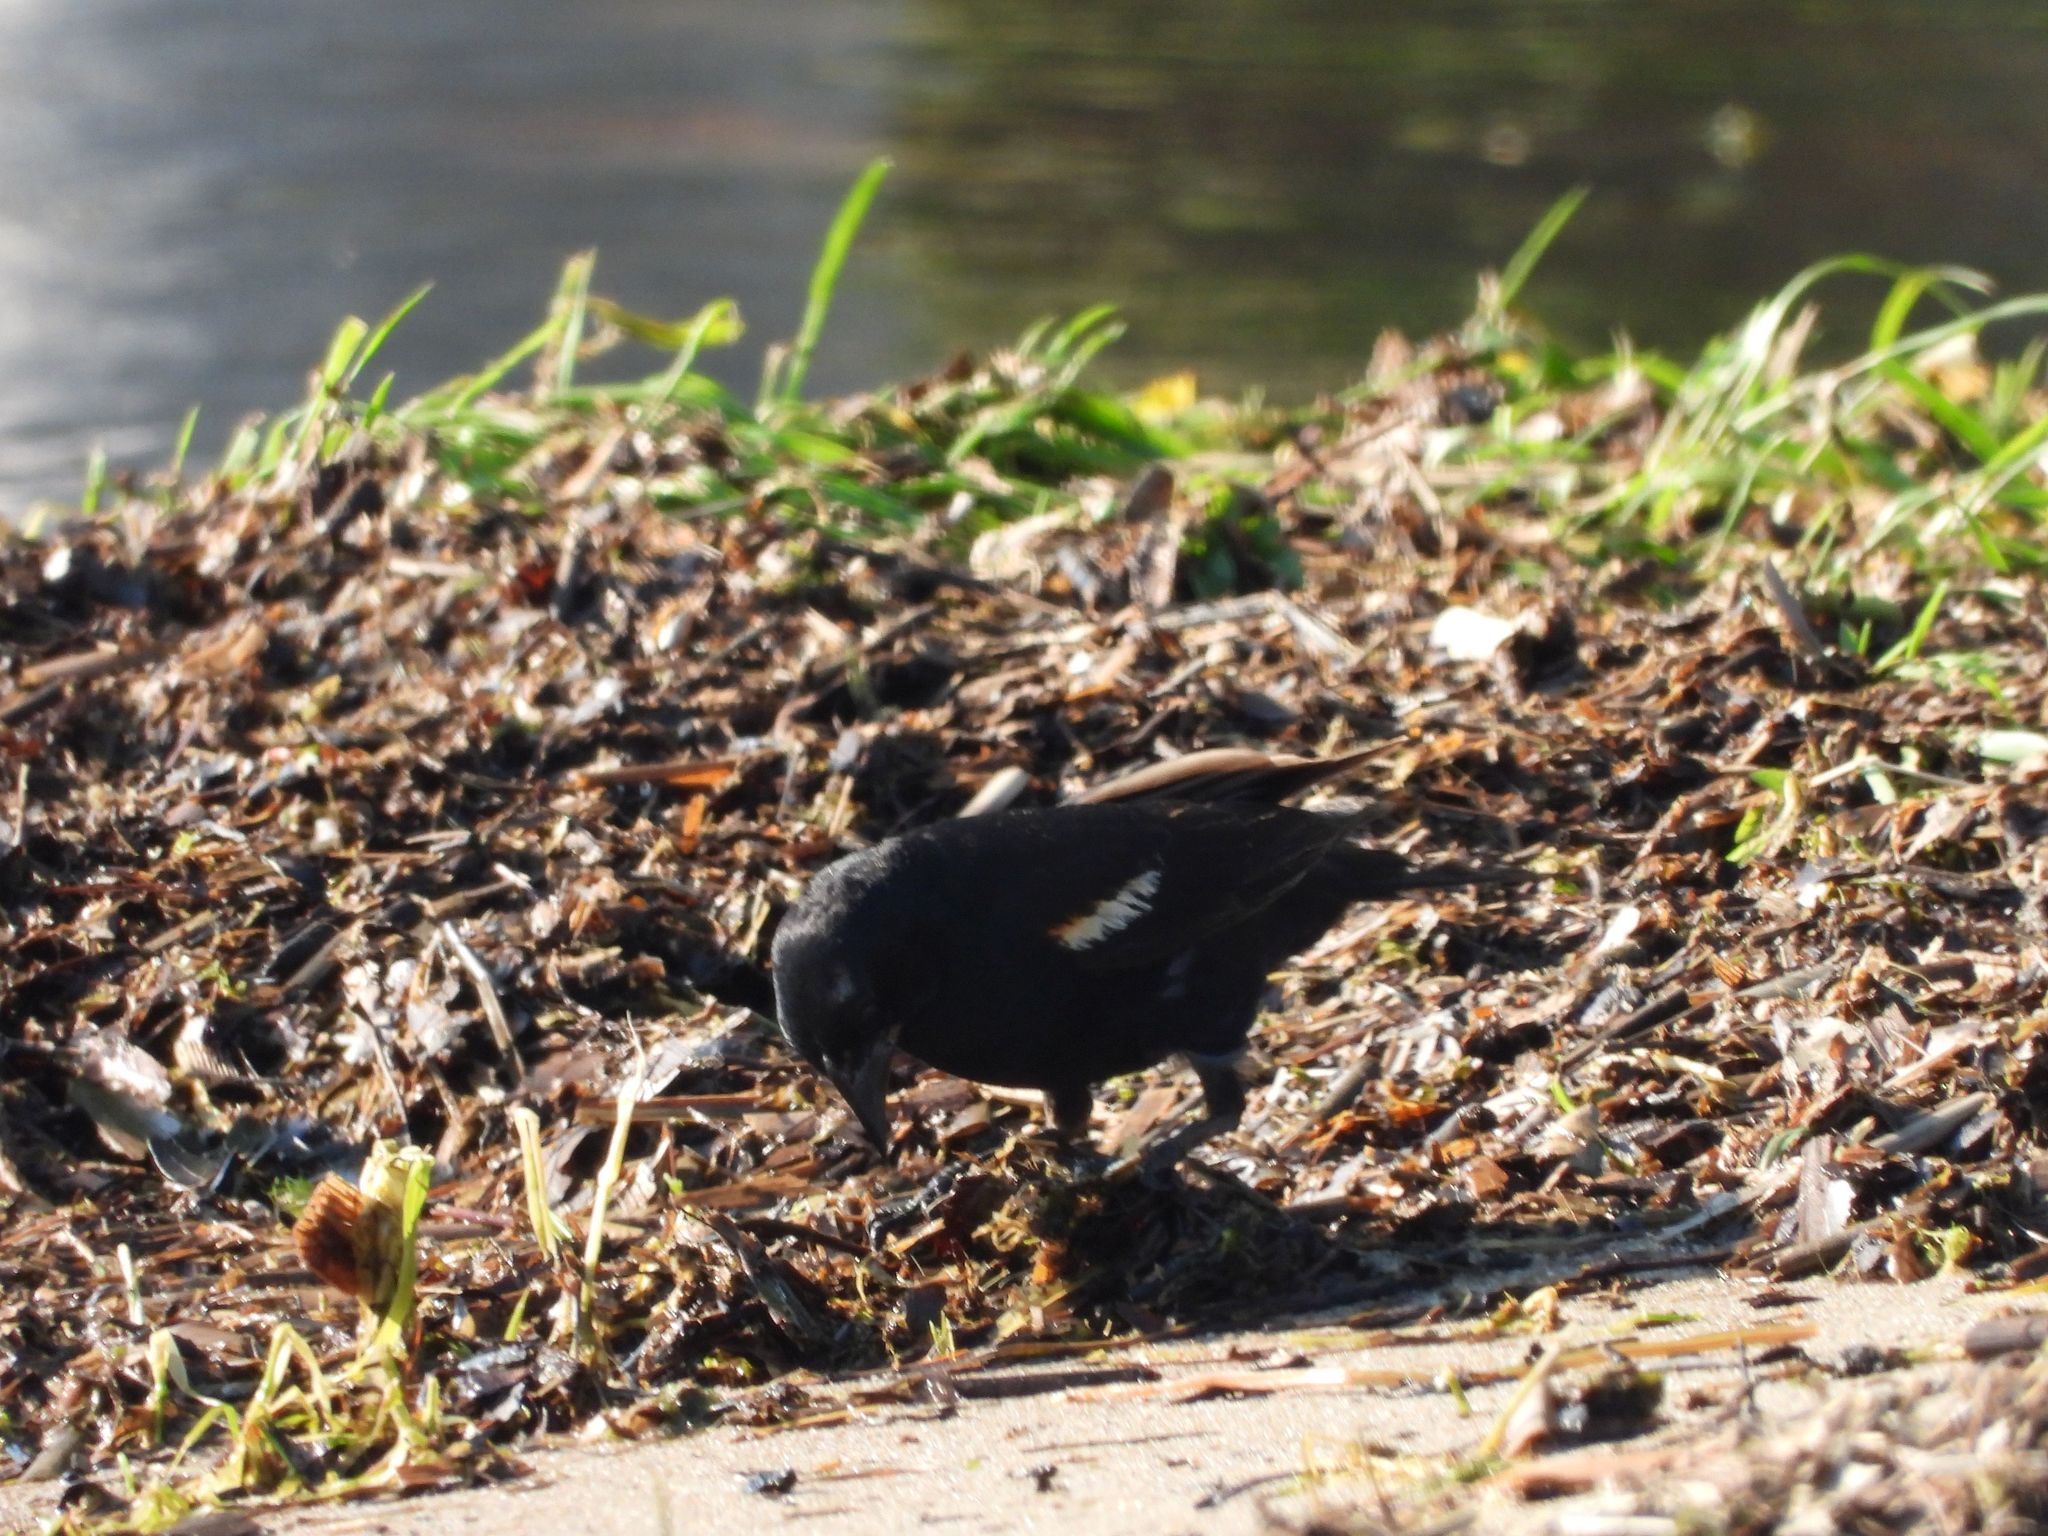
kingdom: Animalia
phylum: Chordata
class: Aves
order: Passeriformes
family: Icteridae
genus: Agelaius
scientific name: Agelaius phoeniceus
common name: Red-winged blackbird
